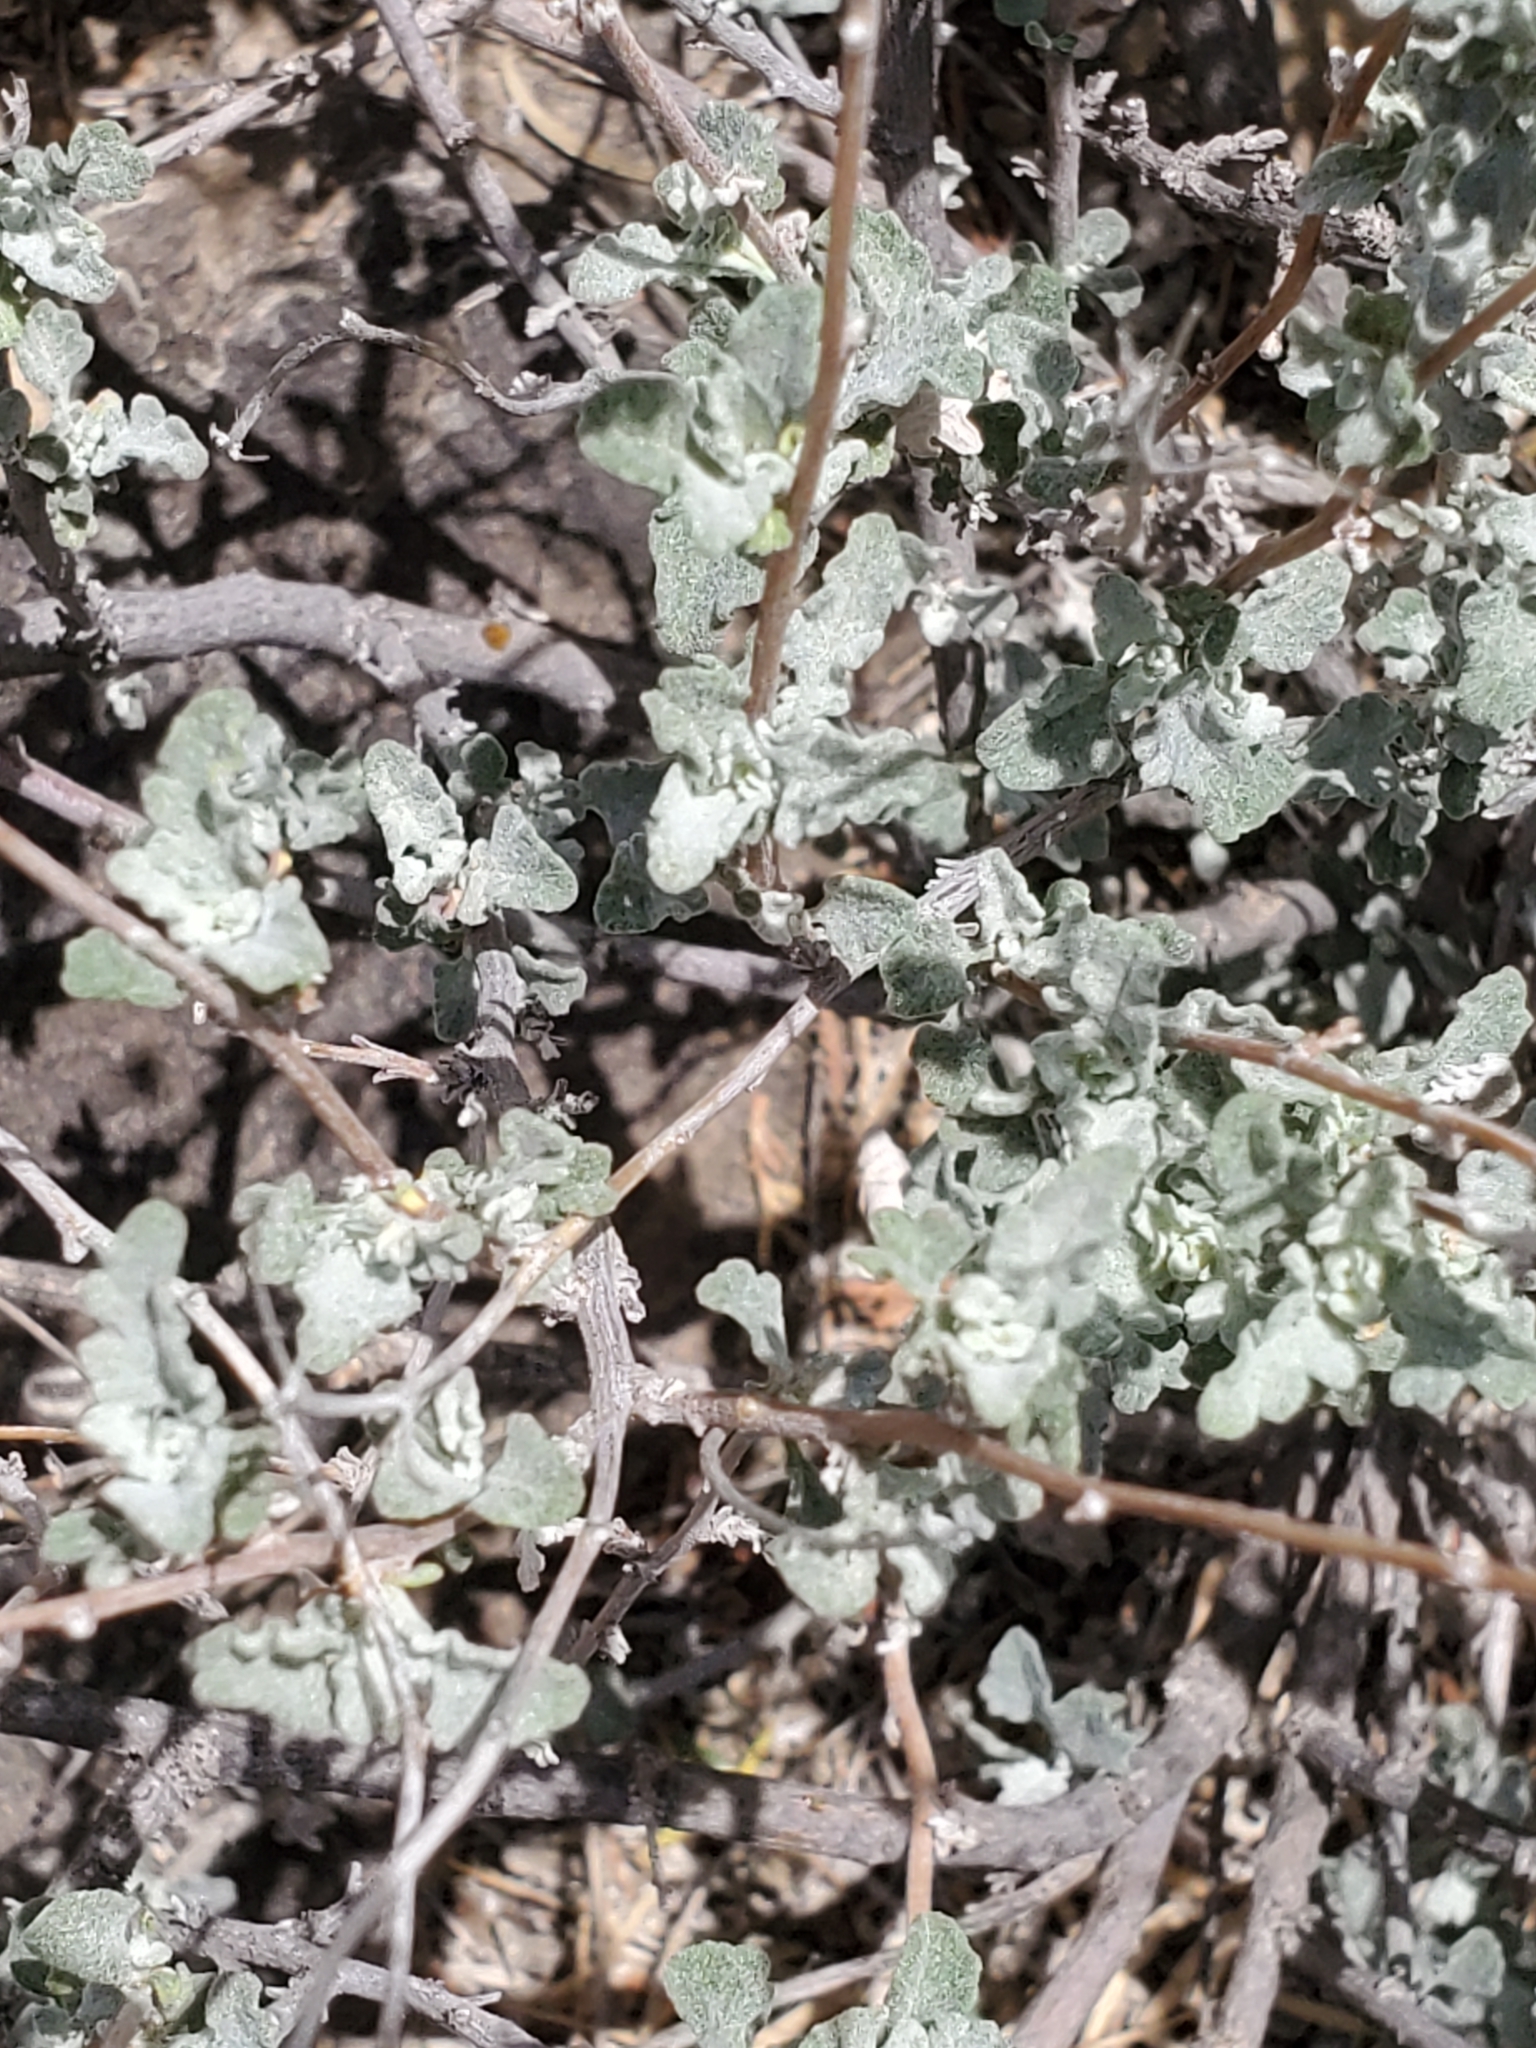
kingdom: Plantae
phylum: Tracheophyta
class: Magnoliopsida
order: Asterales
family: Asteraceae
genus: Parthenium
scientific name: Parthenium incanum
